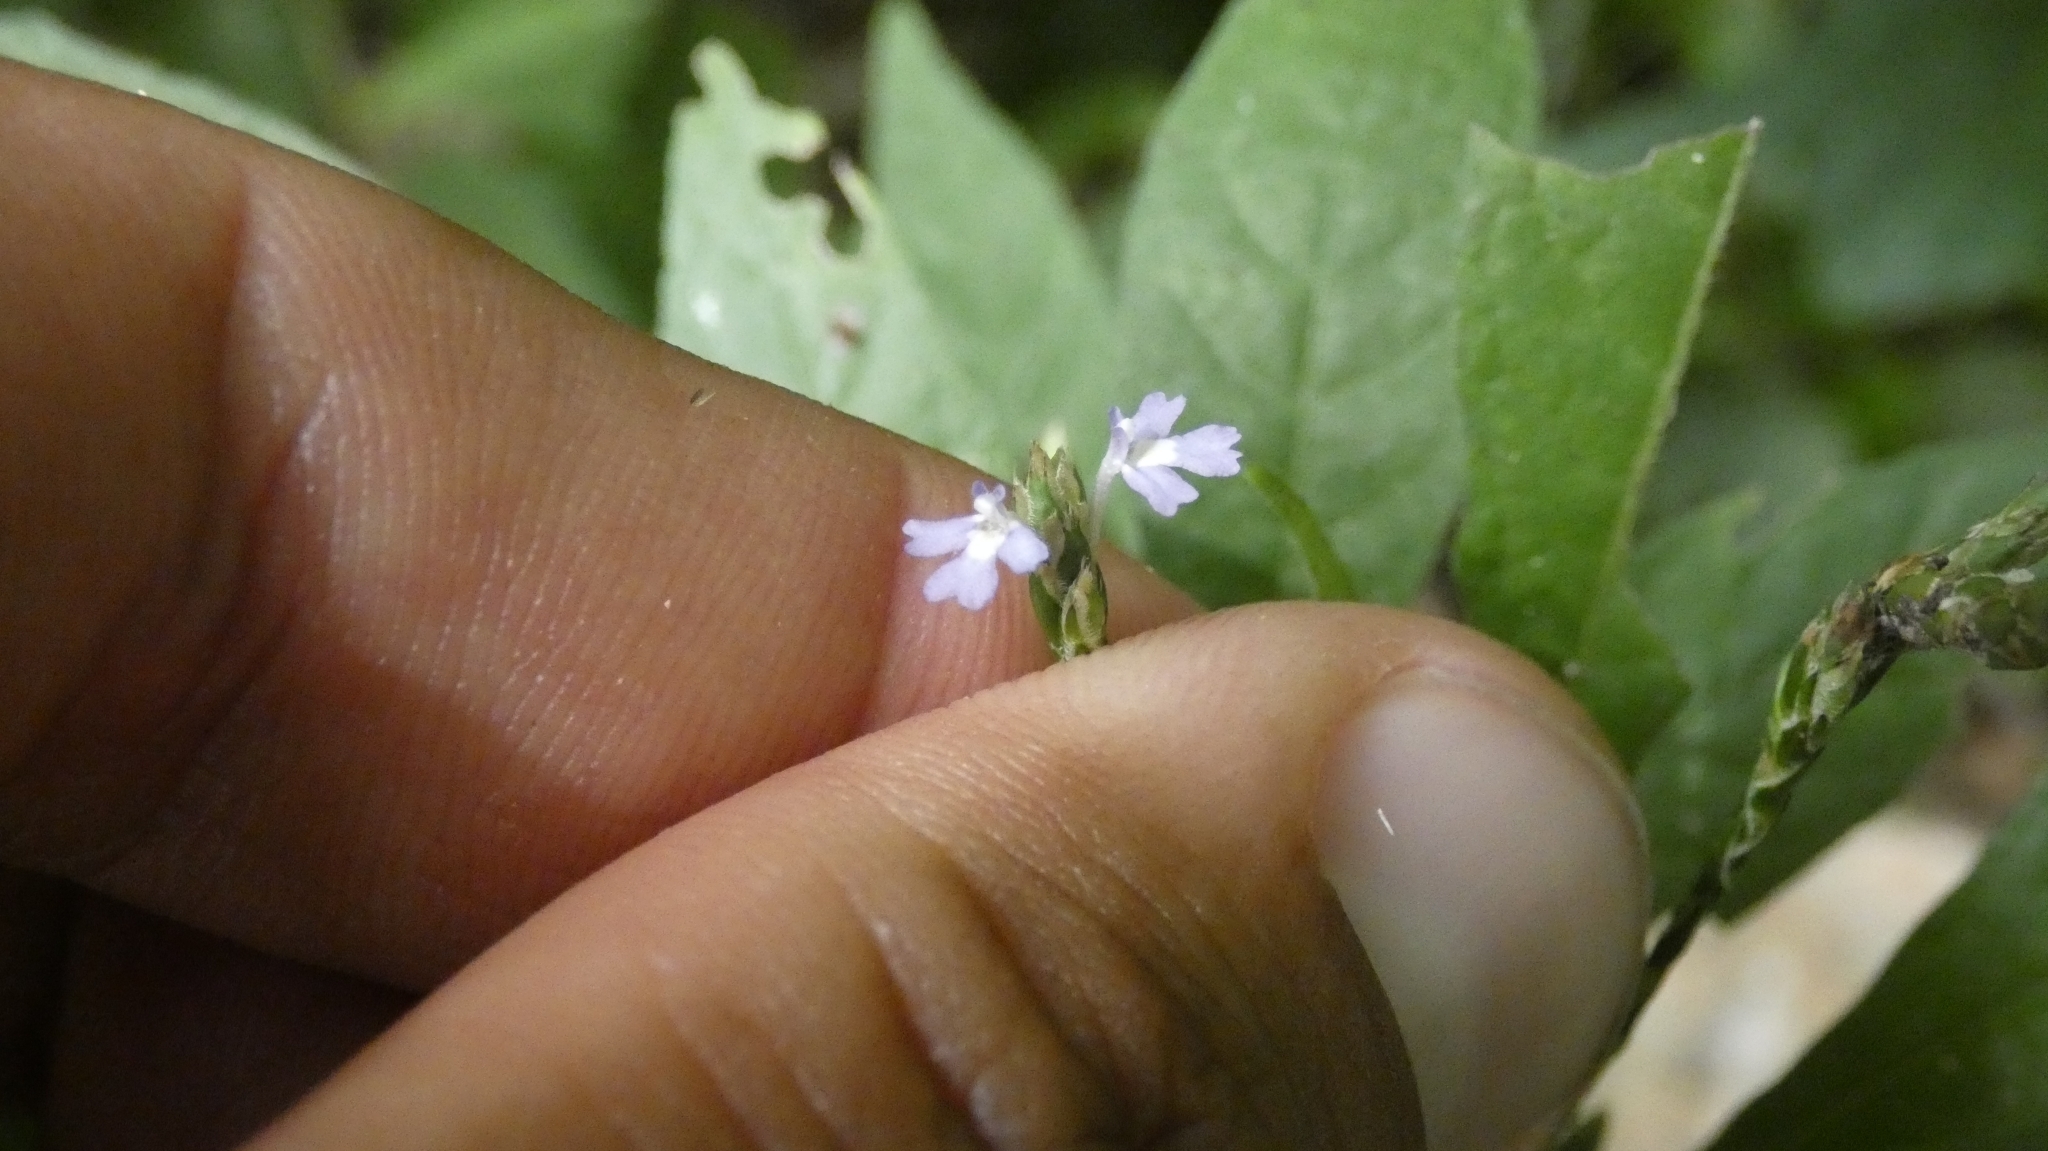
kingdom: Plantae
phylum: Tracheophyta
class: Magnoliopsida
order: Lamiales
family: Acanthaceae
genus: Elytraria
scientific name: Elytraria imbricata
